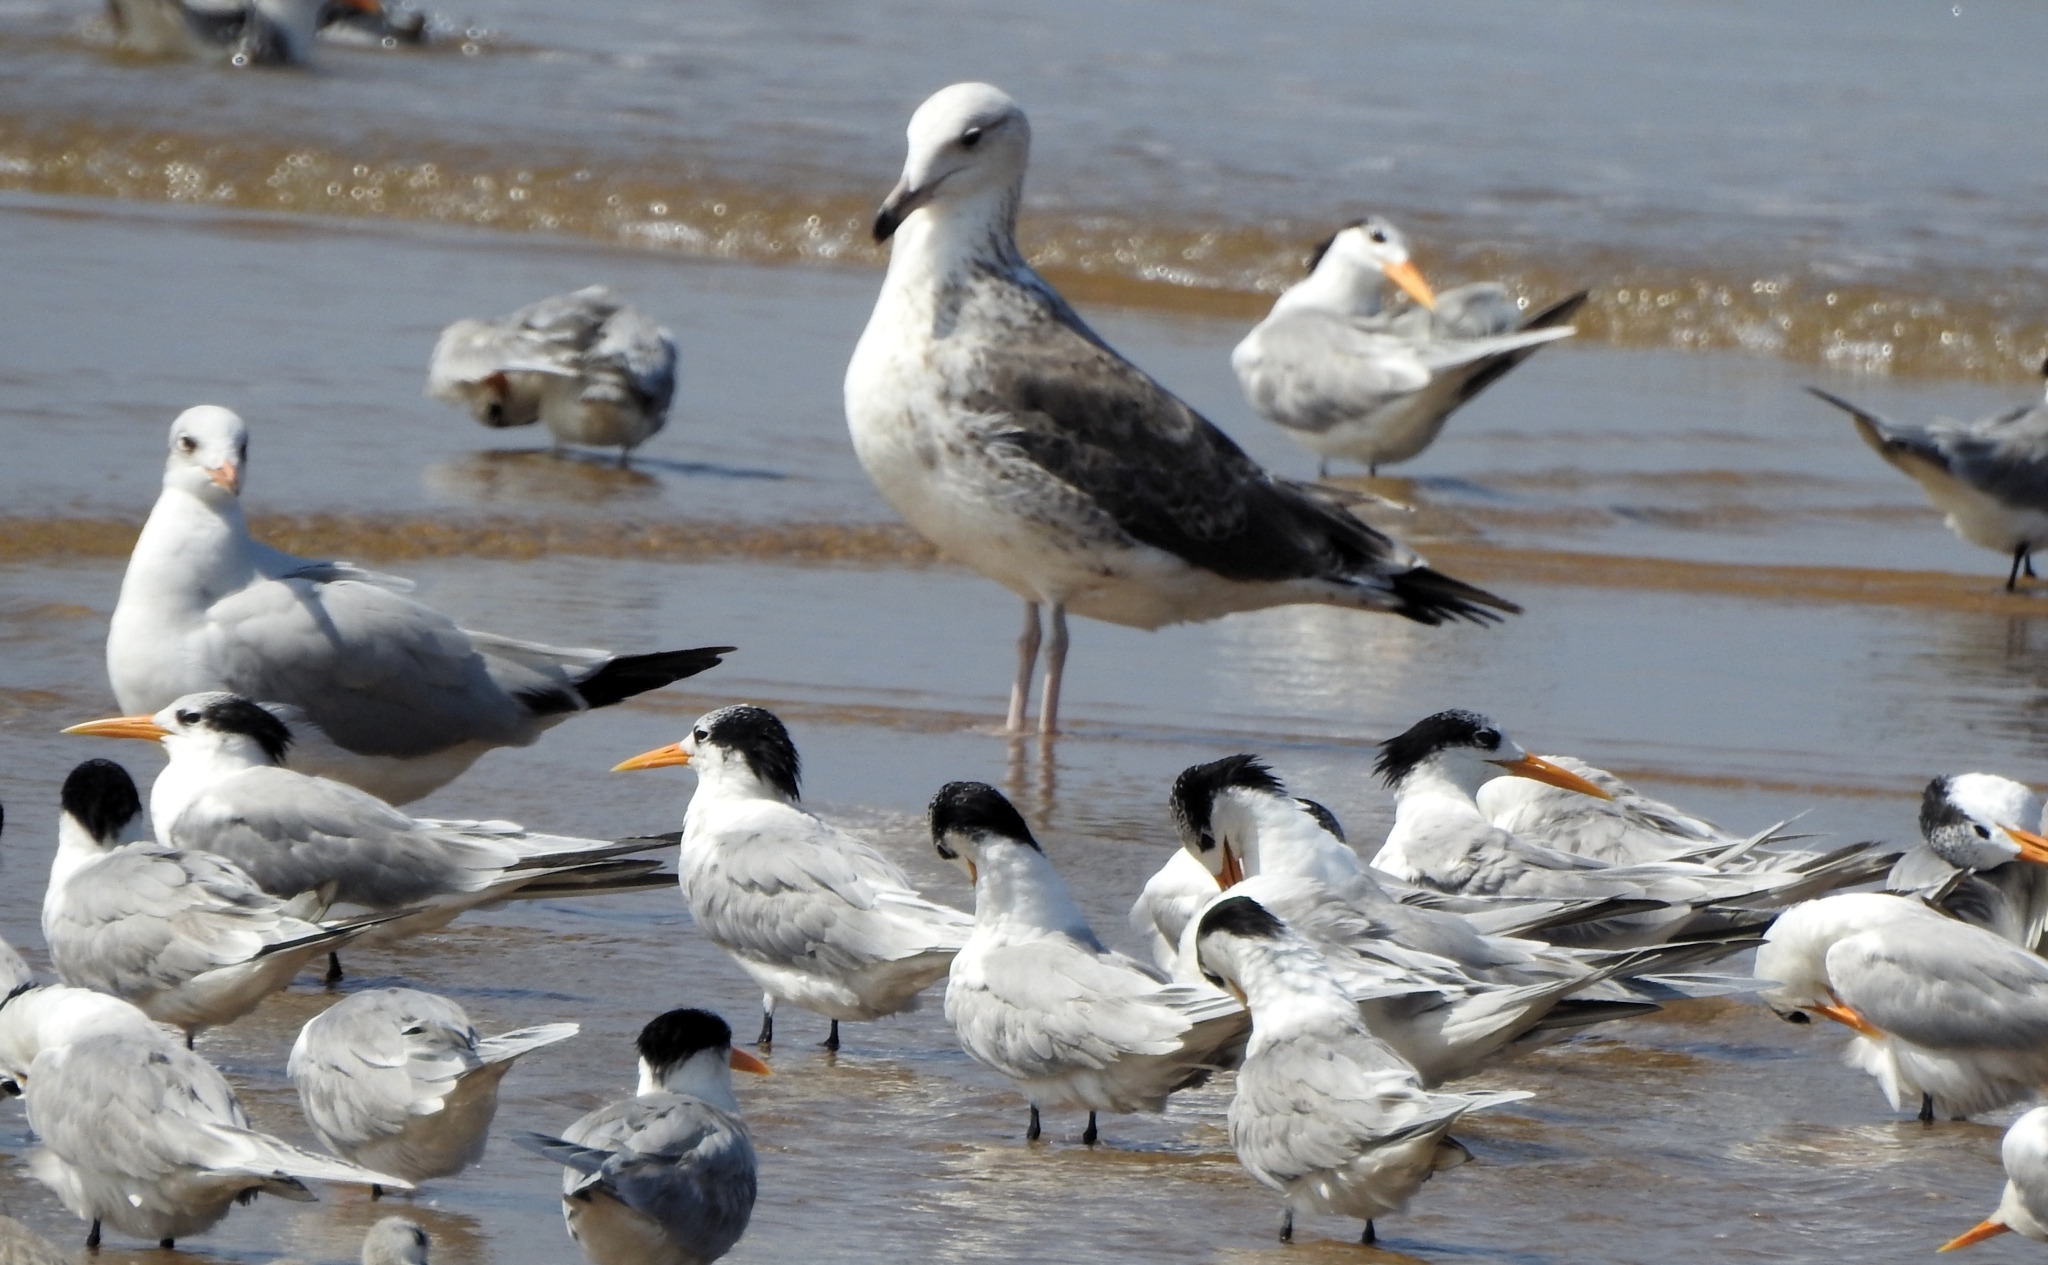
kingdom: Animalia
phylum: Chordata
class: Aves
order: Charadriiformes
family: Laridae
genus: Larus
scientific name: Larus fuscus
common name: Lesser black-backed gull
